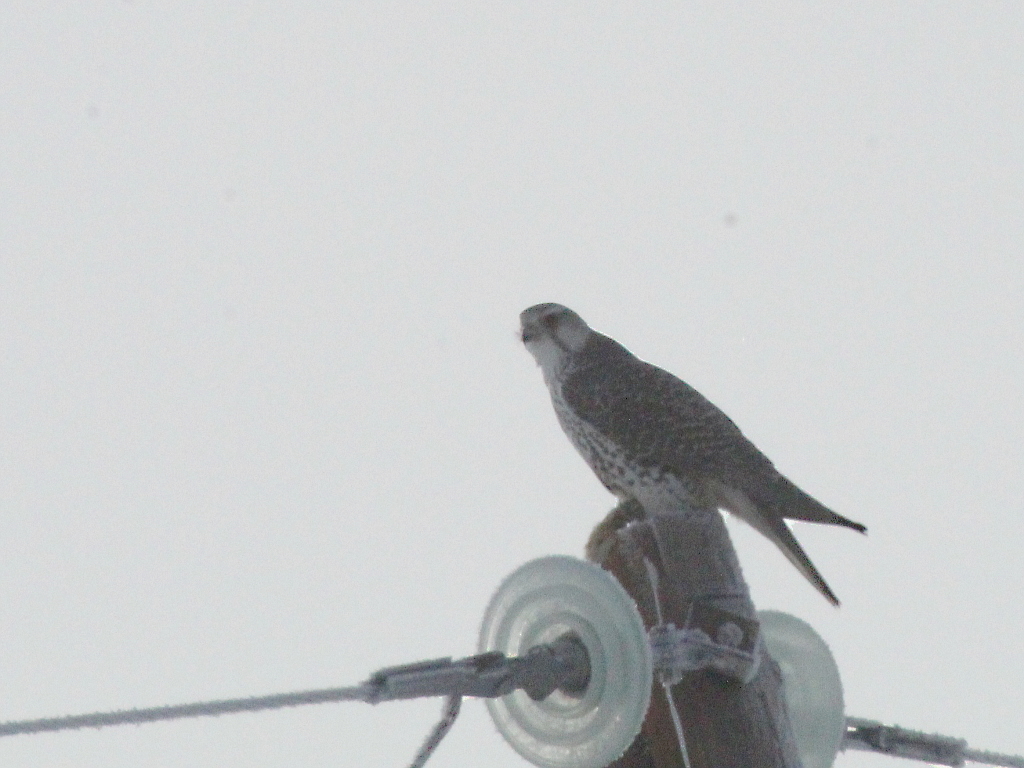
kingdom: Animalia
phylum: Chordata
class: Aves
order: Falconiformes
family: Falconidae
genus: Falco
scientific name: Falco cherrug
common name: Saker falcon
